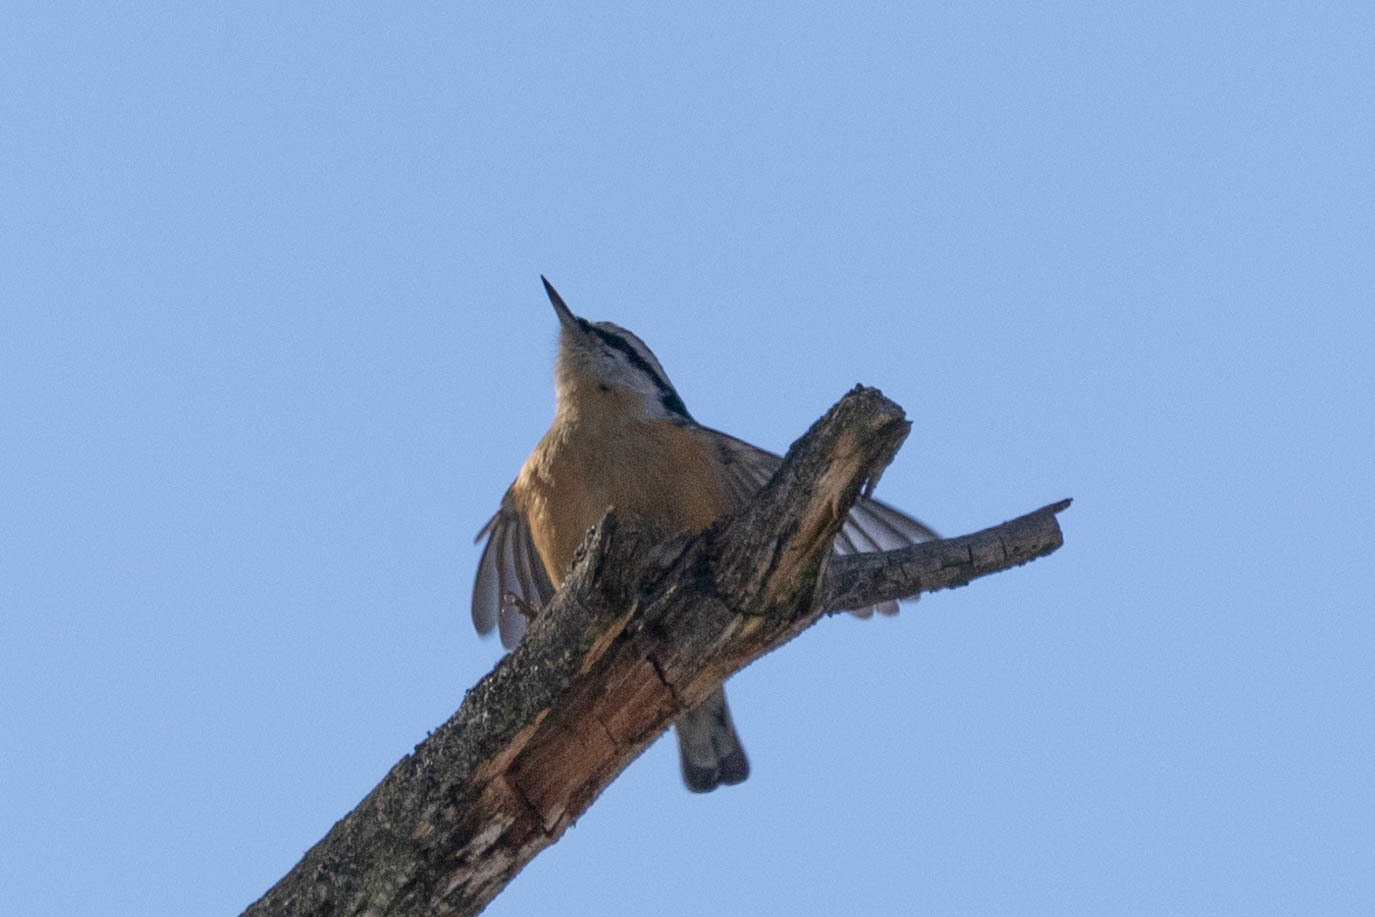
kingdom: Animalia
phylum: Chordata
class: Aves
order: Passeriformes
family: Sittidae
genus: Sitta
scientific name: Sitta canadensis
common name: Red-breasted nuthatch
